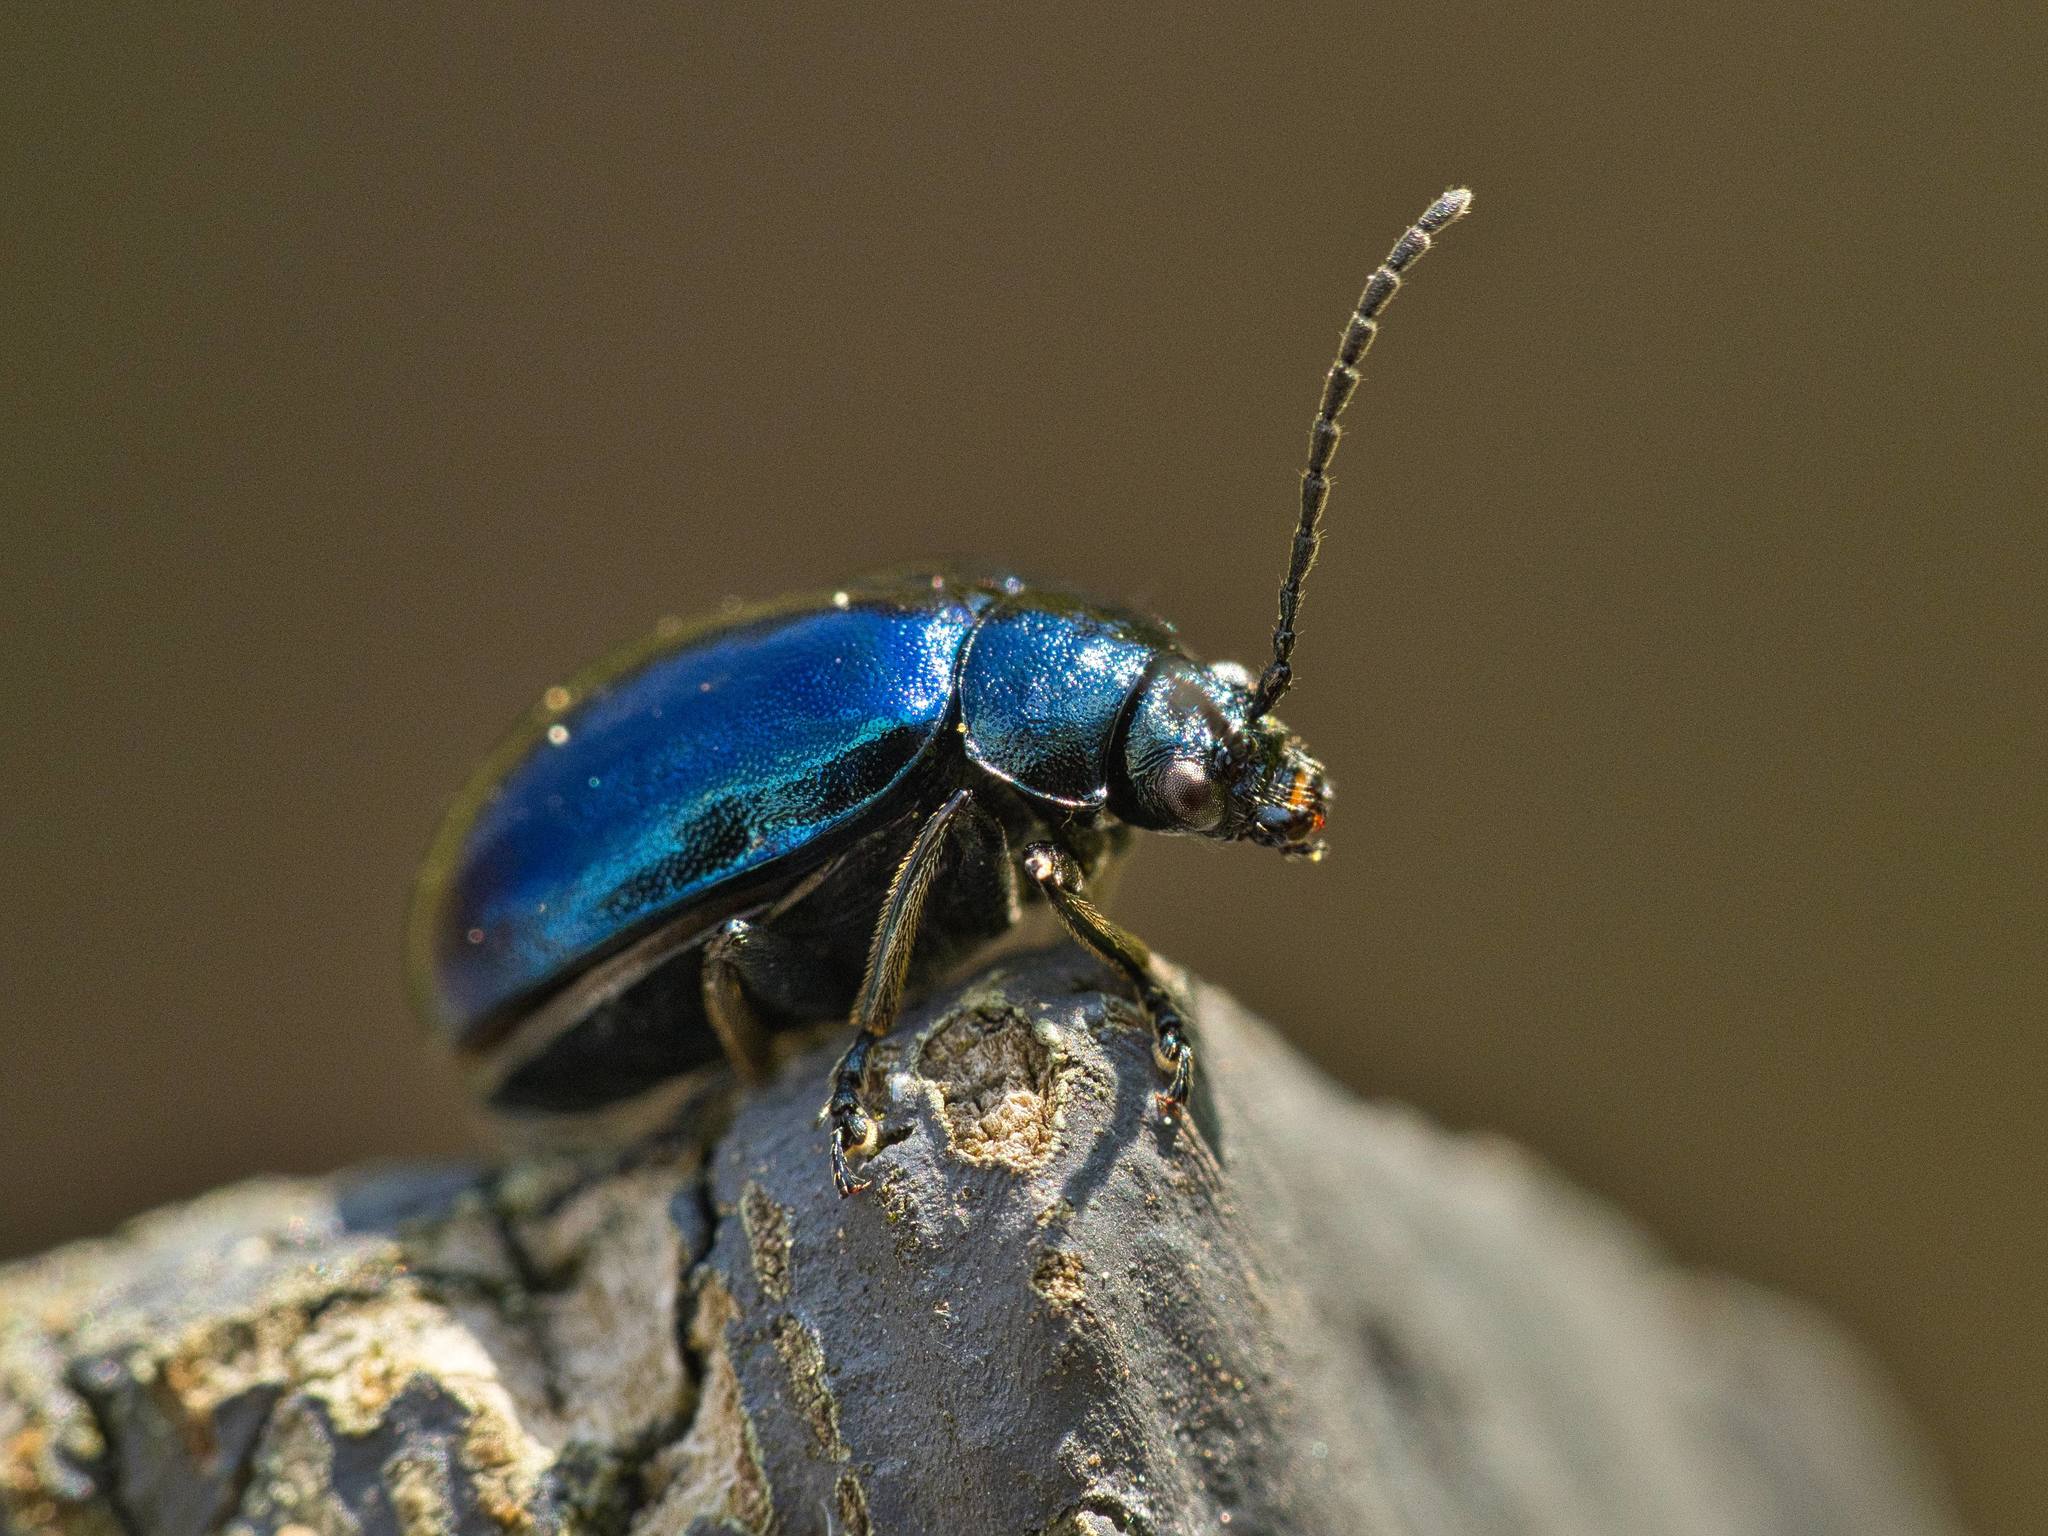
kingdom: Animalia
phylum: Arthropoda
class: Insecta
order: Coleoptera
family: Chrysomelidae
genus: Agelastica
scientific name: Agelastica alni
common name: Alder leaf beetle
